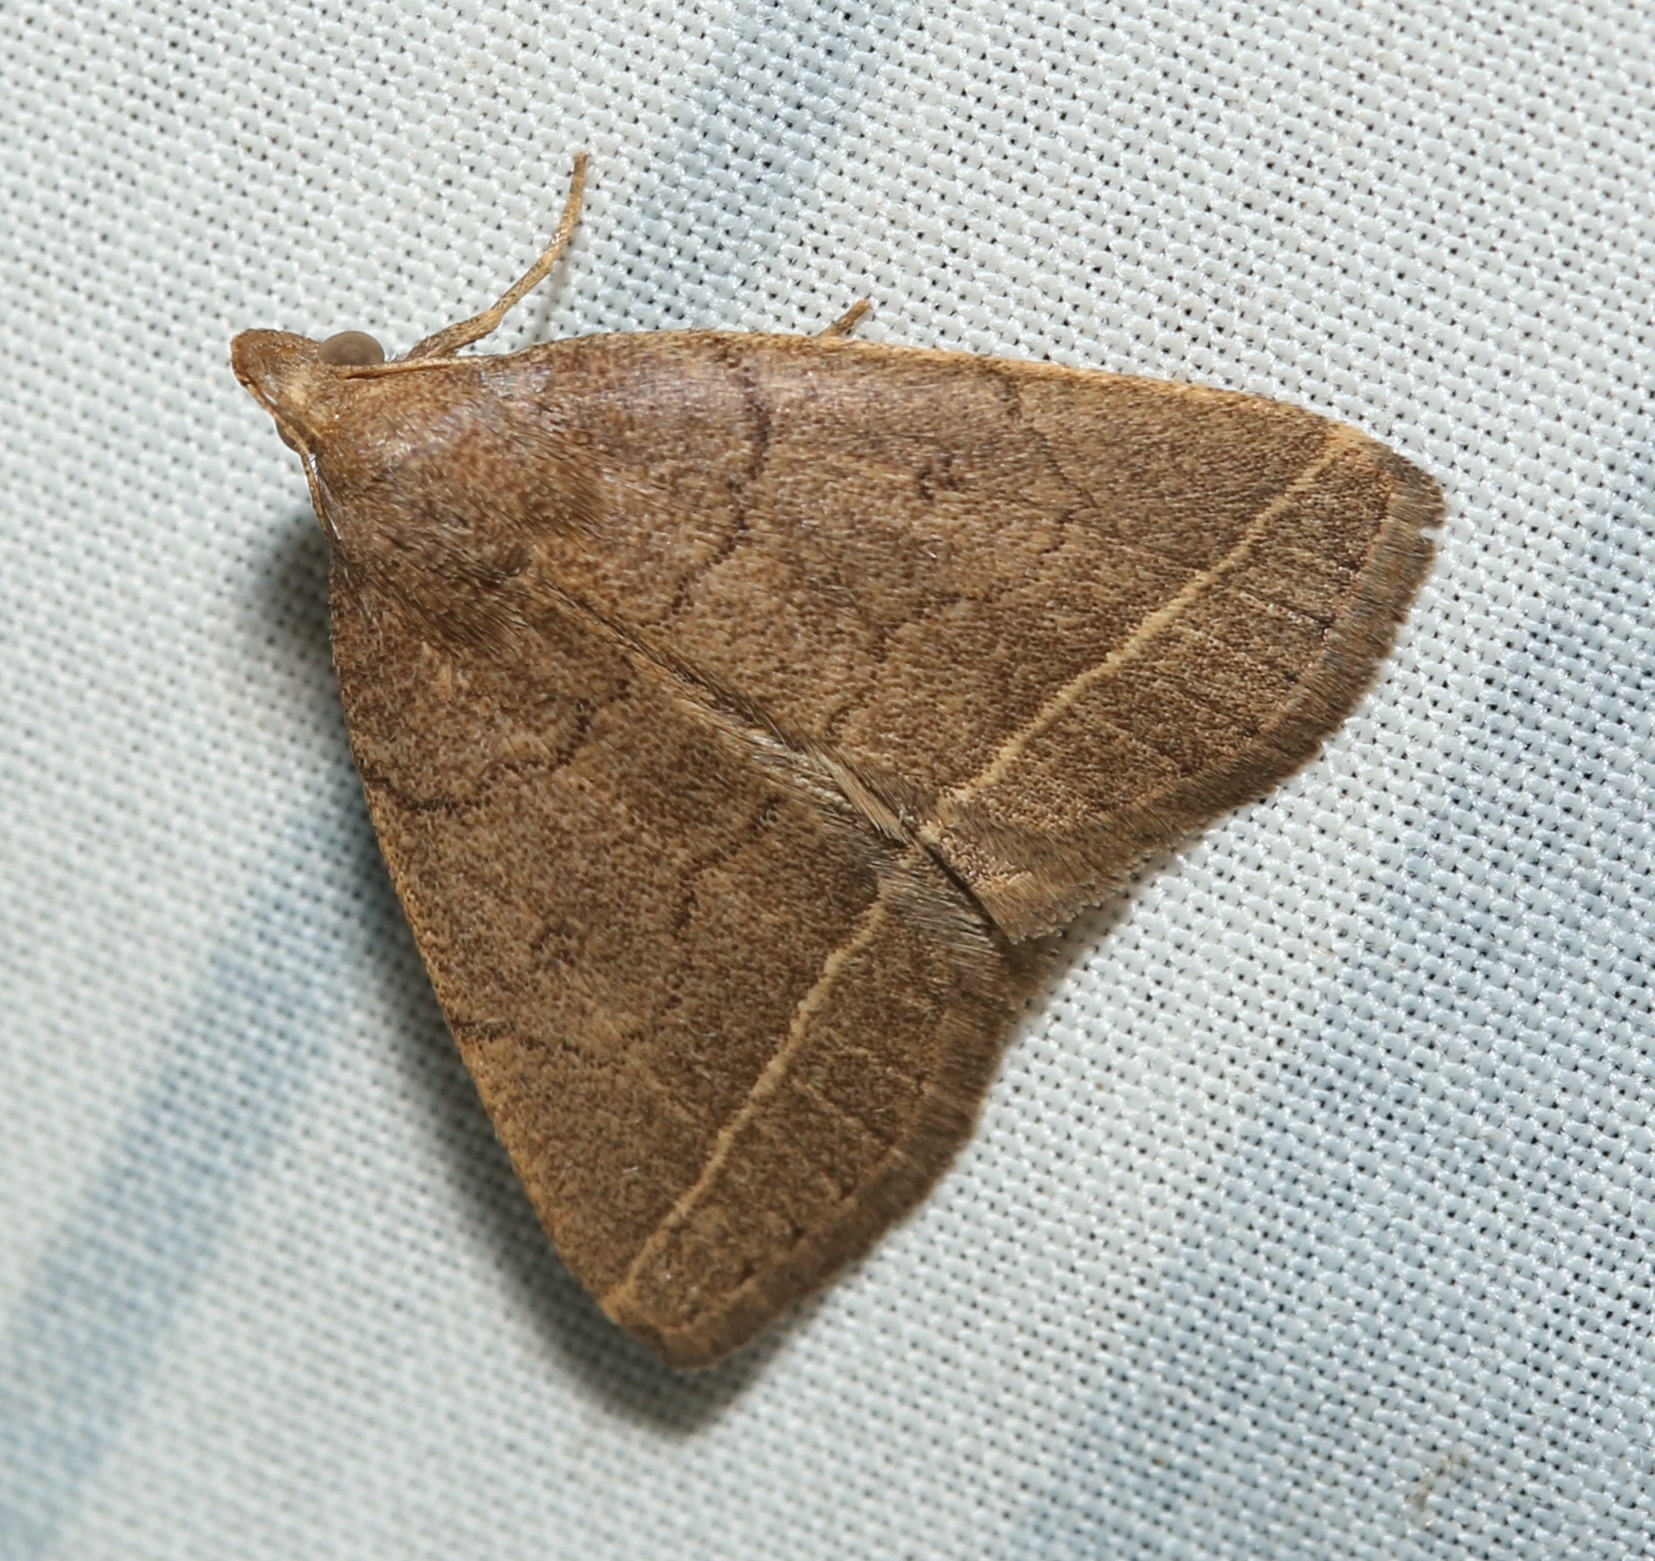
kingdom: Animalia
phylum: Arthropoda
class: Insecta
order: Lepidoptera
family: Erebidae
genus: Zanclognatha
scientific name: Zanclognatha marcidilinea
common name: Yellowish fan-foot
